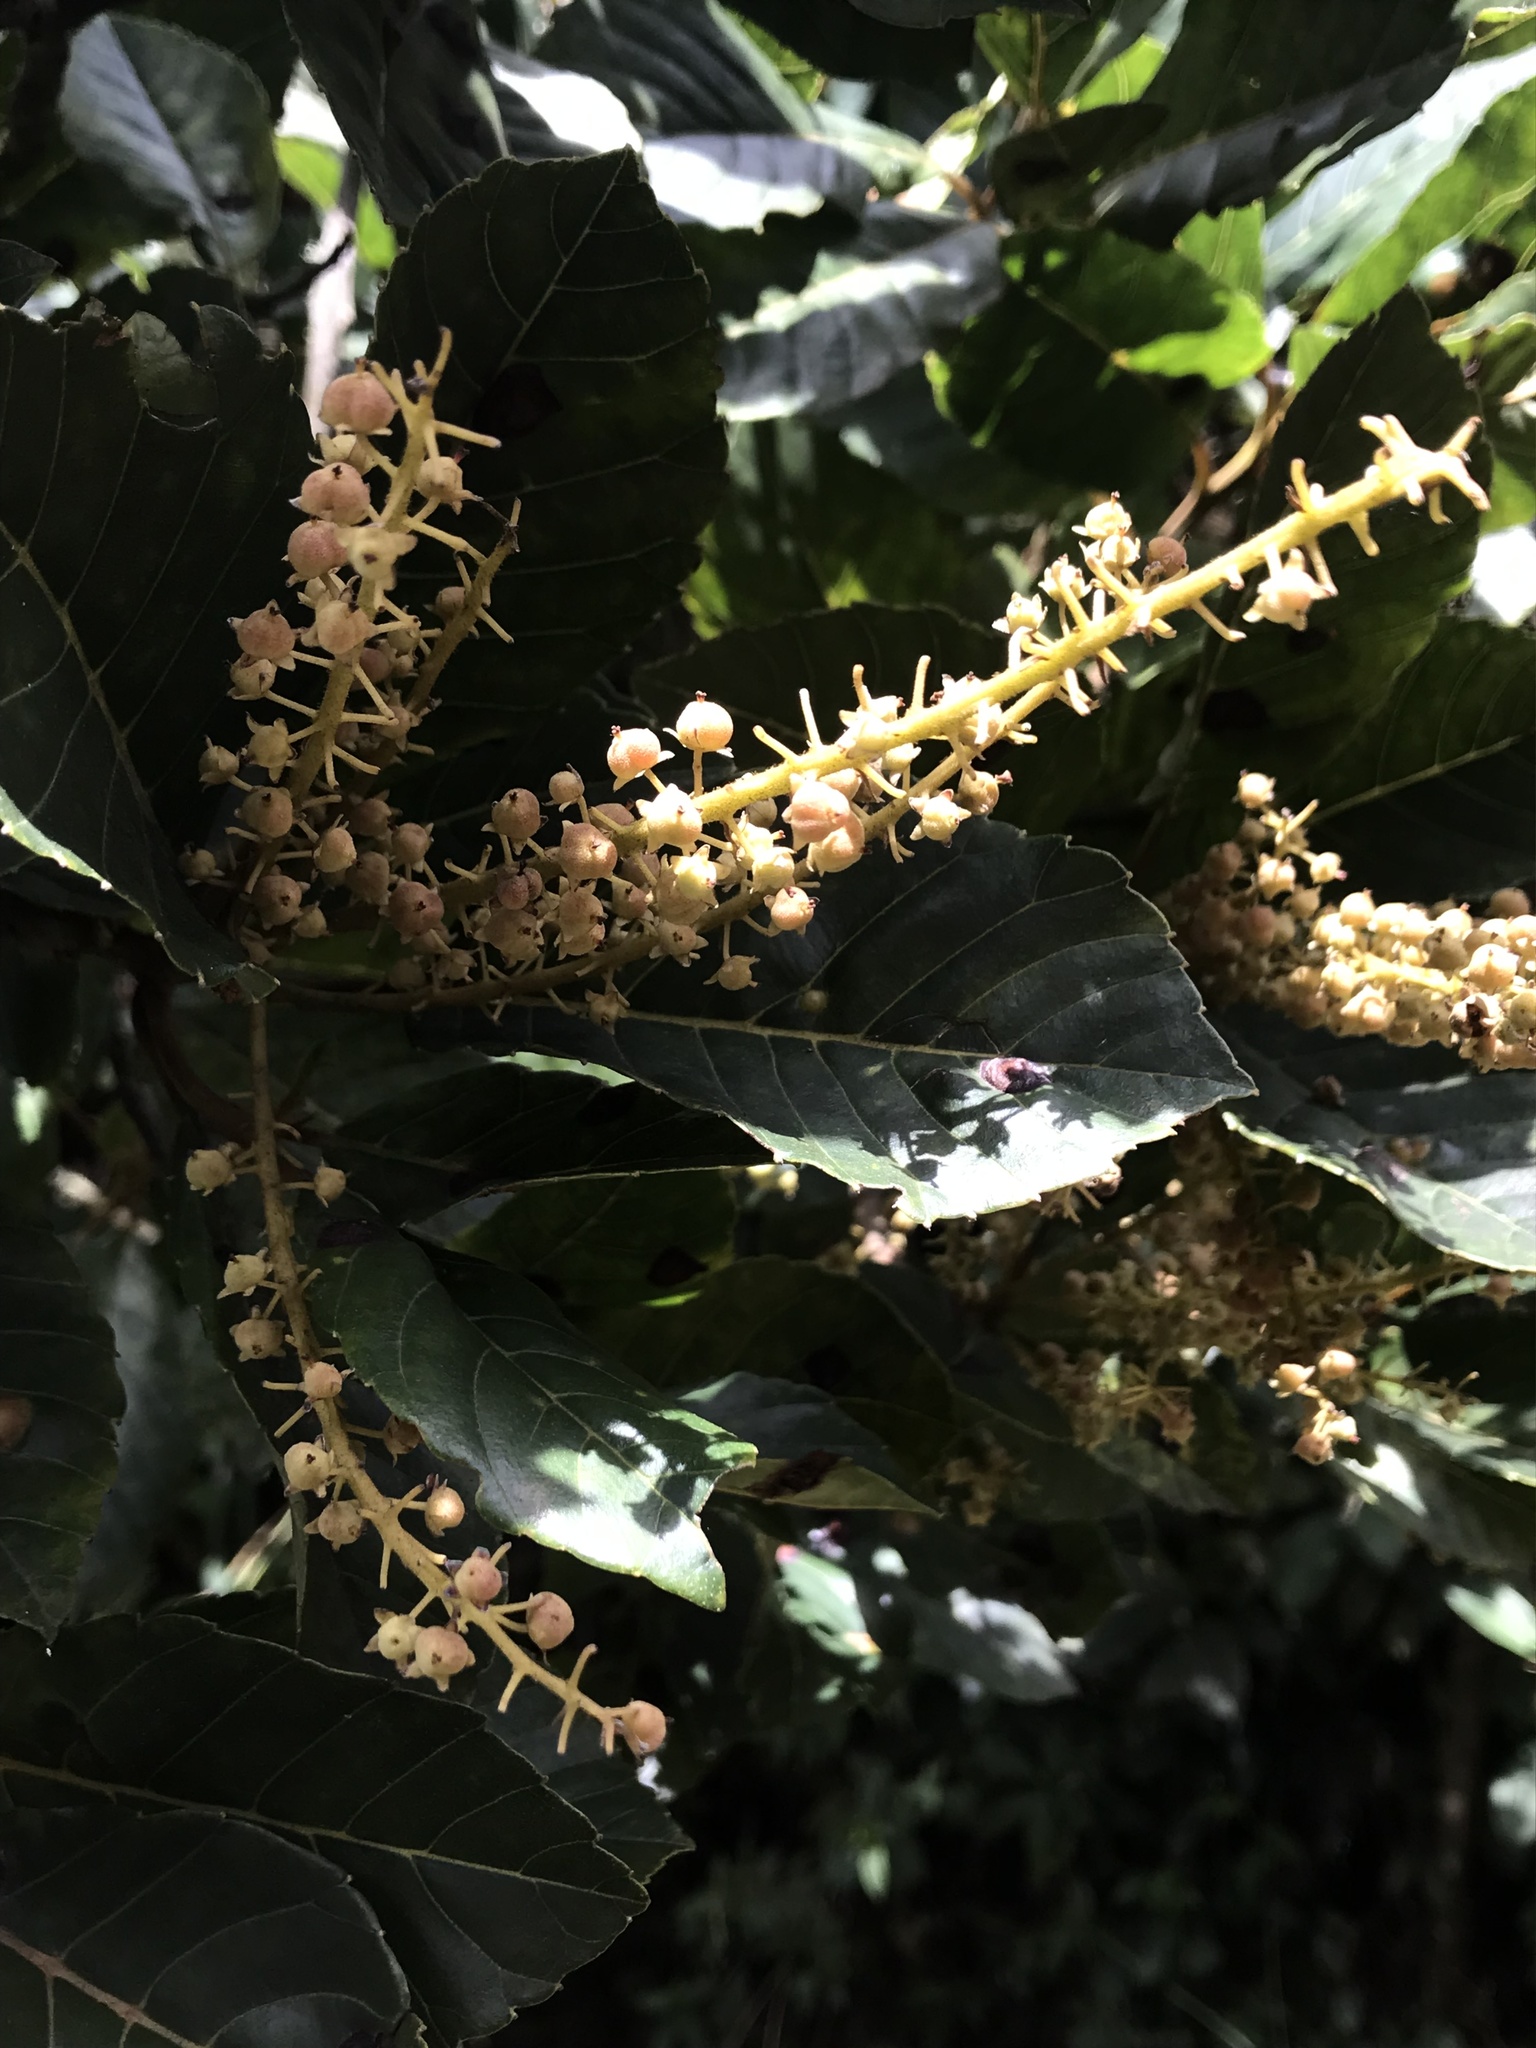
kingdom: Plantae
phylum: Tracheophyta
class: Magnoliopsida
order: Ericales
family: Clethraceae
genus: Clethra
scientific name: Clethra fagifolia
